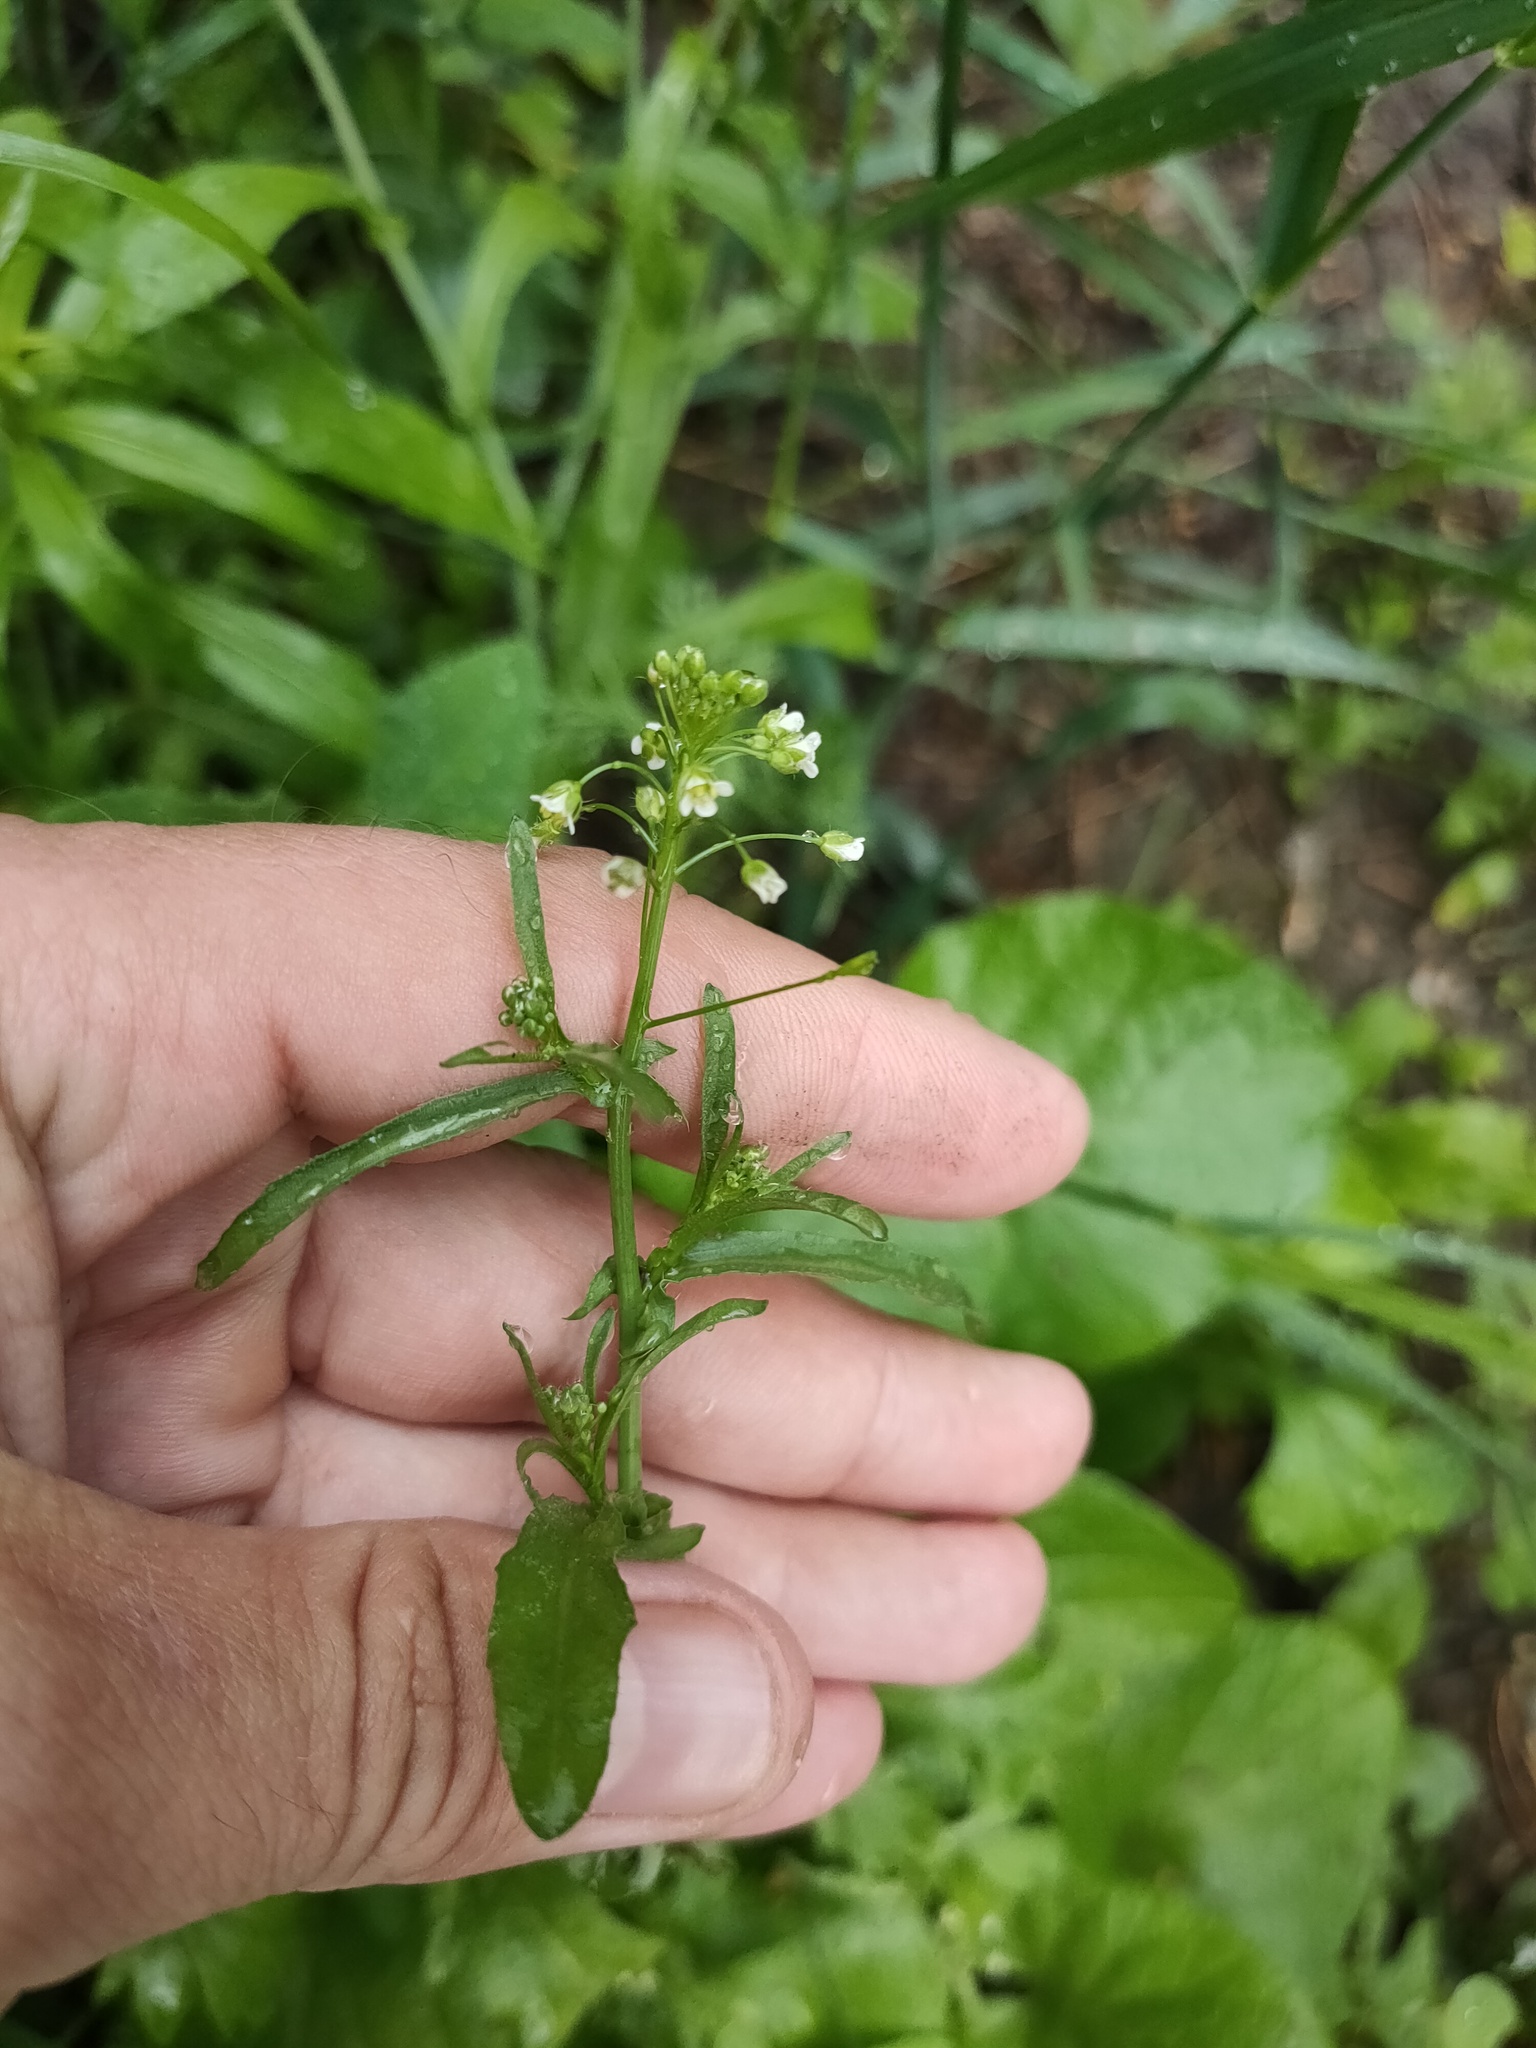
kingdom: Plantae
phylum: Tracheophyta
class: Magnoliopsida
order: Brassicales
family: Brassicaceae
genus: Capsella
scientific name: Capsella bursa-pastoris
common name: Shepherd's purse
